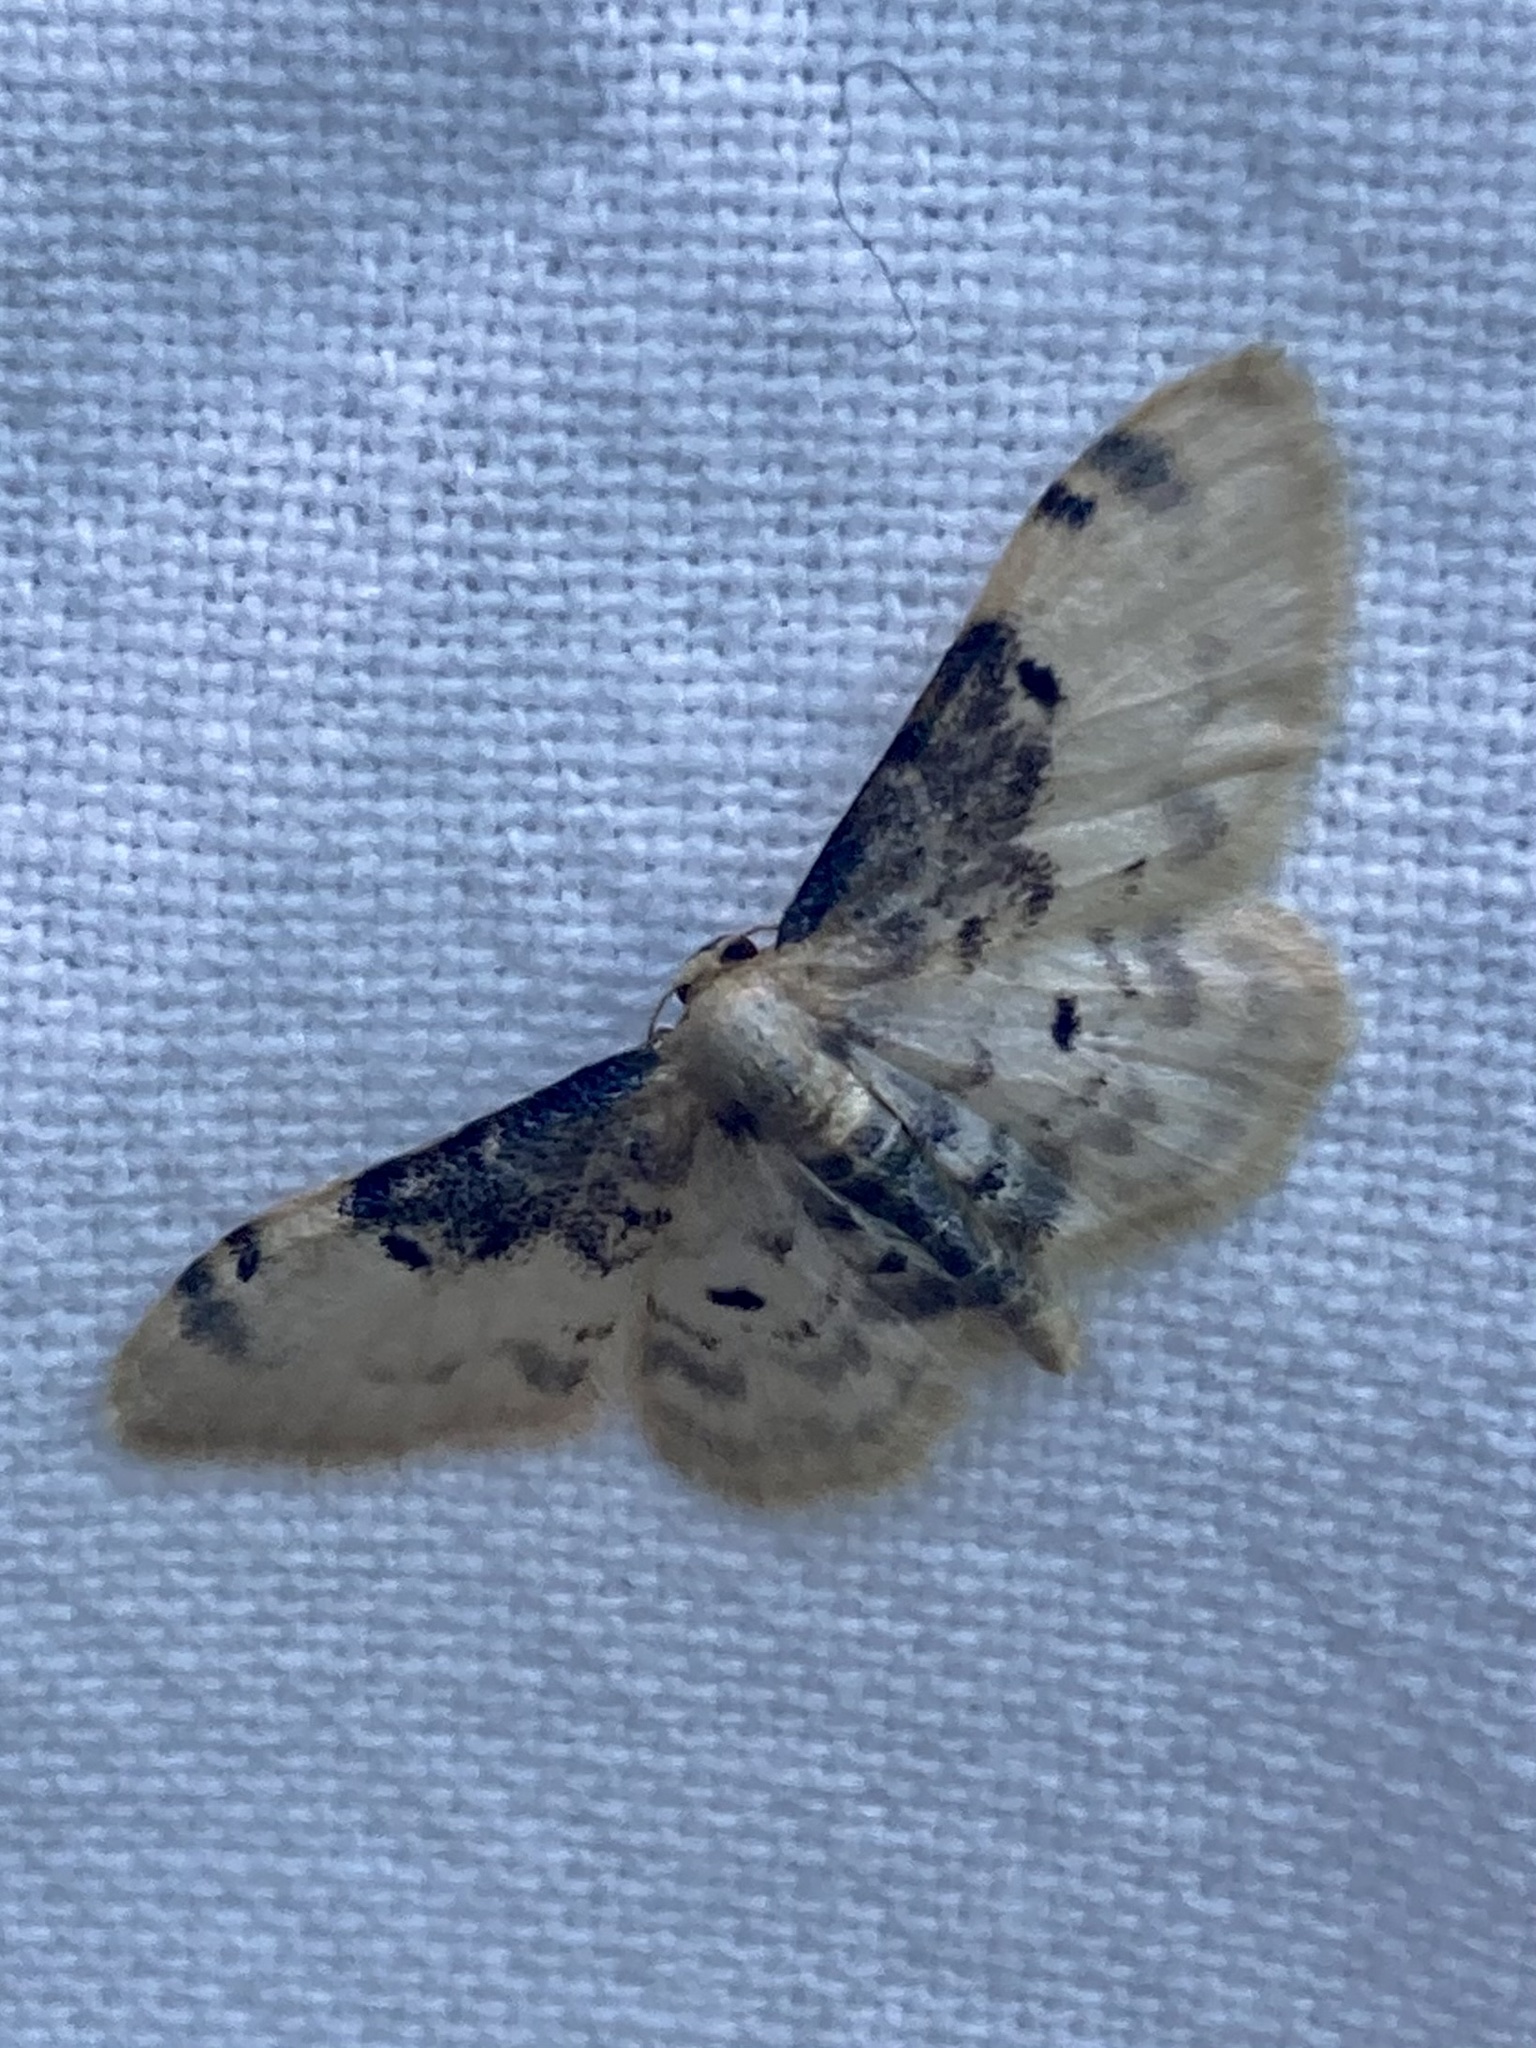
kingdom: Animalia
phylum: Arthropoda
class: Insecta
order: Lepidoptera
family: Geometridae
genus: Idaea
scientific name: Idaea filicata
